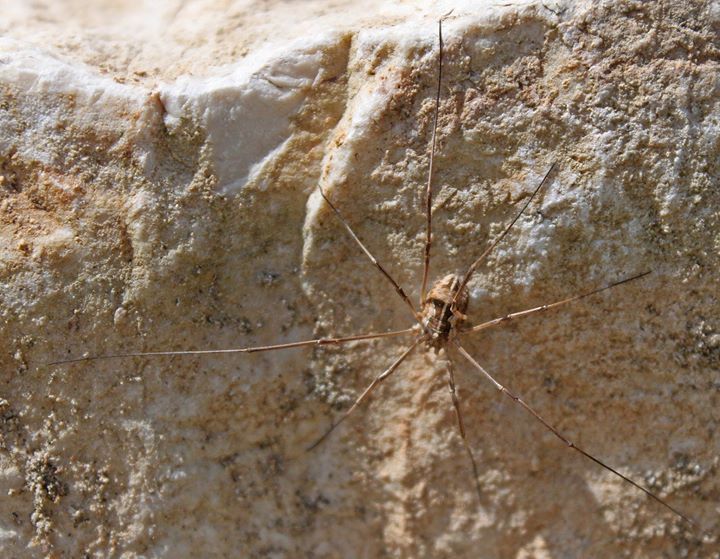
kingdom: Animalia
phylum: Arthropoda
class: Arachnida
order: Opiliones
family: Phalangiidae
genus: Metaphalangium
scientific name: Metaphalangium cirtanum
